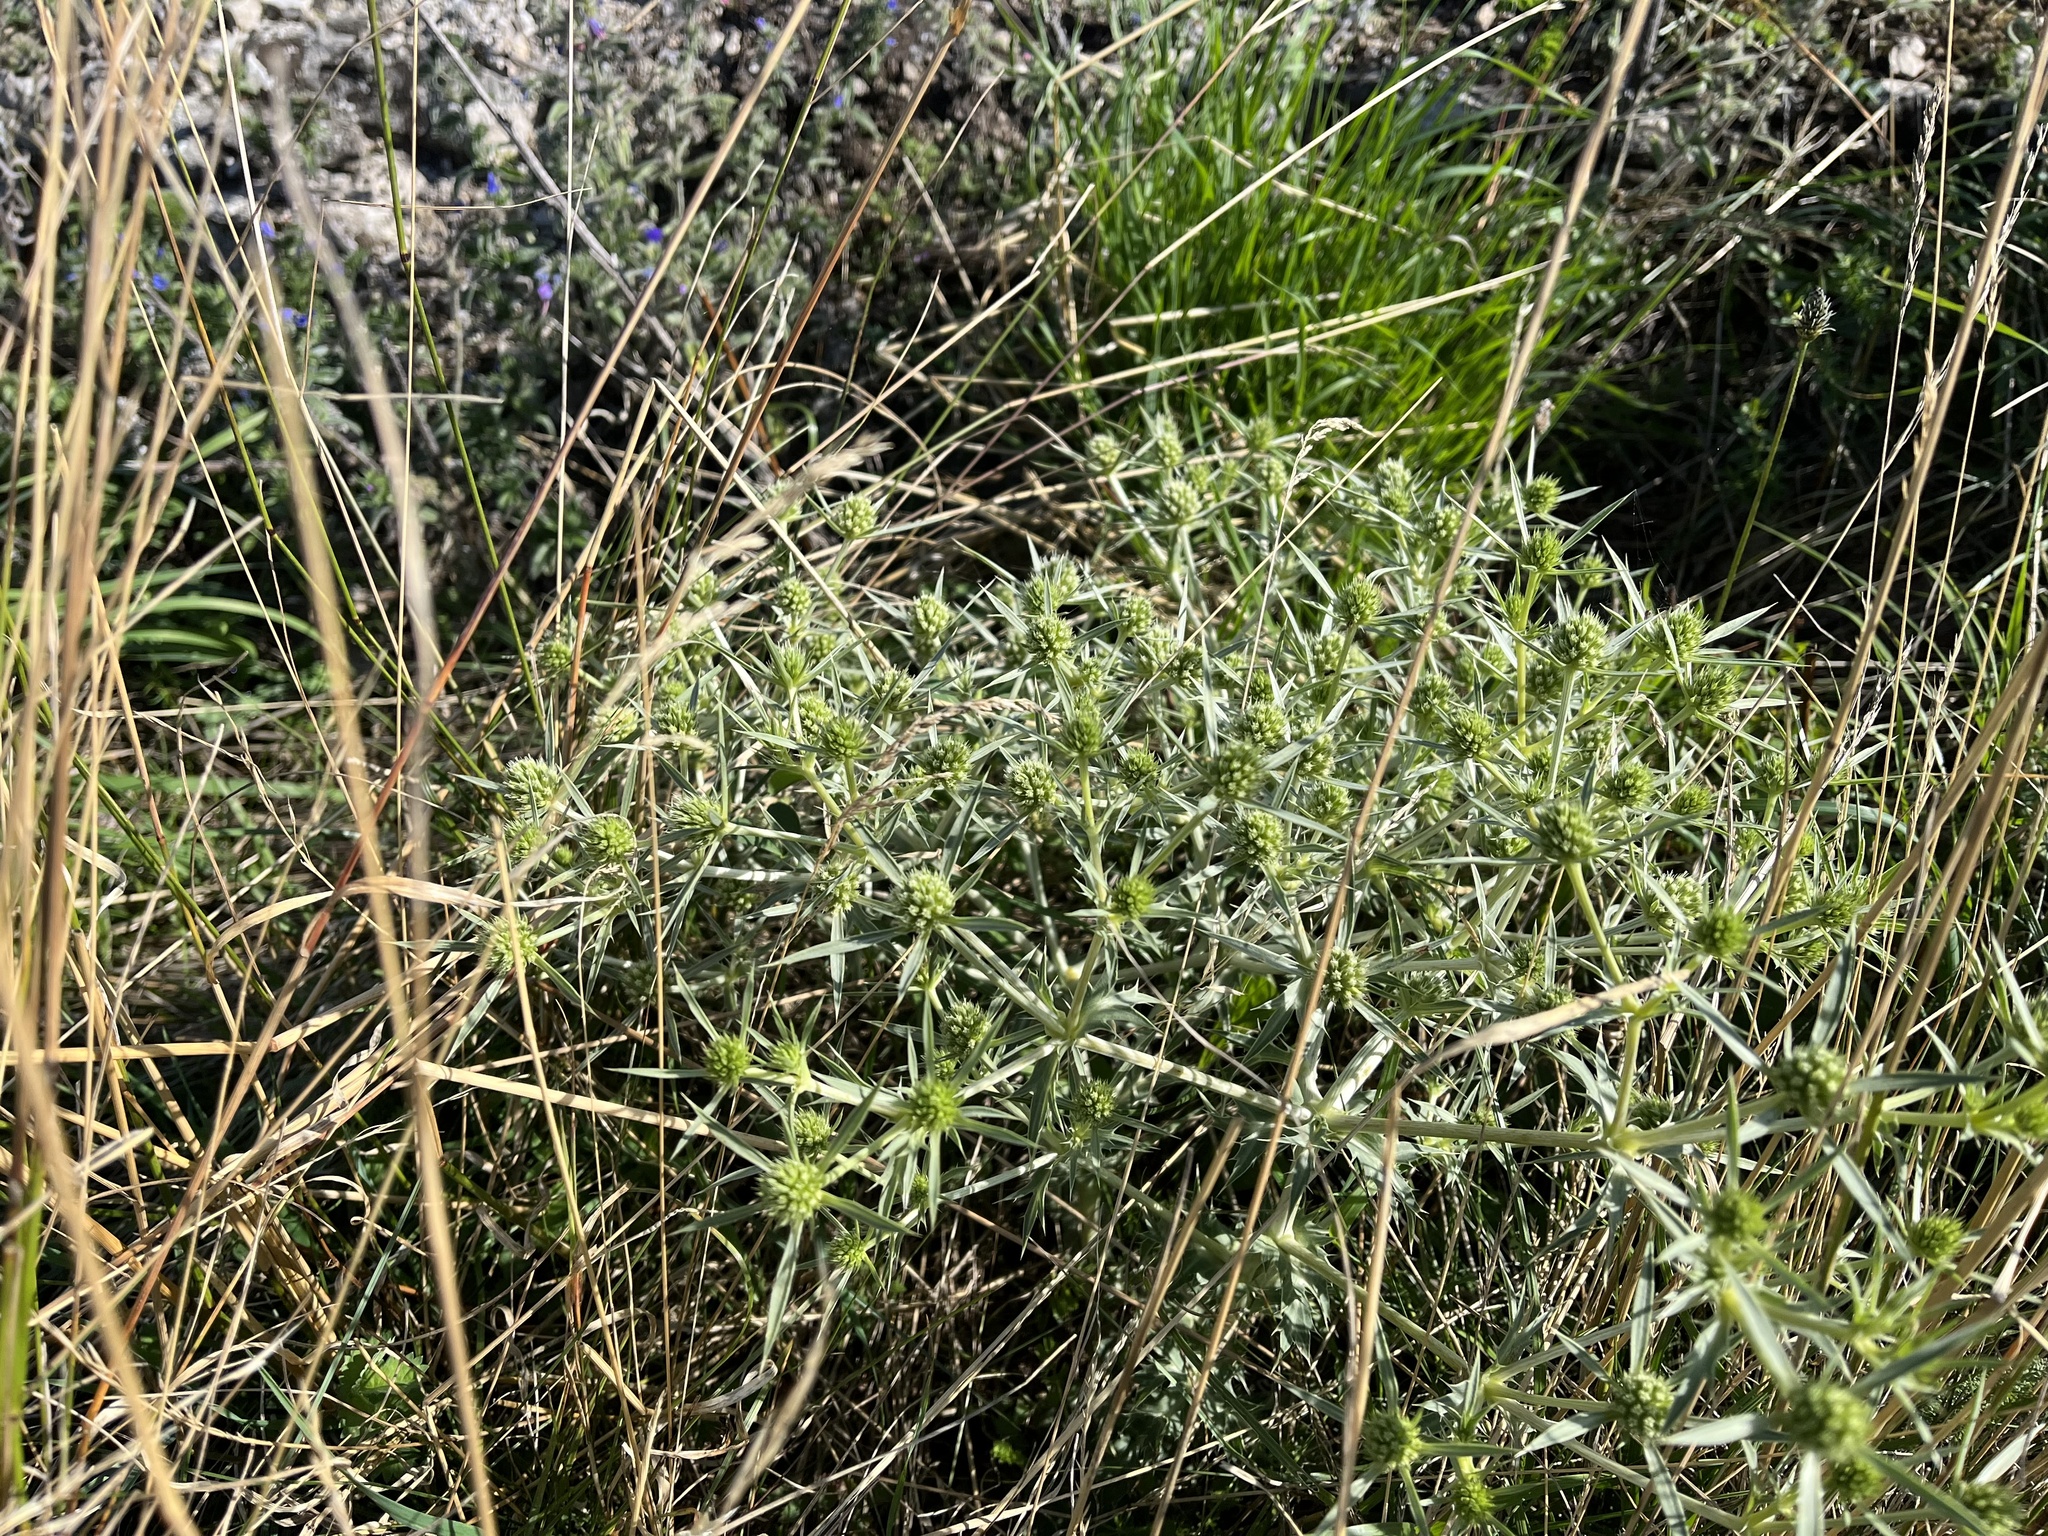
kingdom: Plantae
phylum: Tracheophyta
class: Magnoliopsida
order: Apiales
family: Apiaceae
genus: Eryngium
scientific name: Eryngium campestre
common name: Field eryngo
